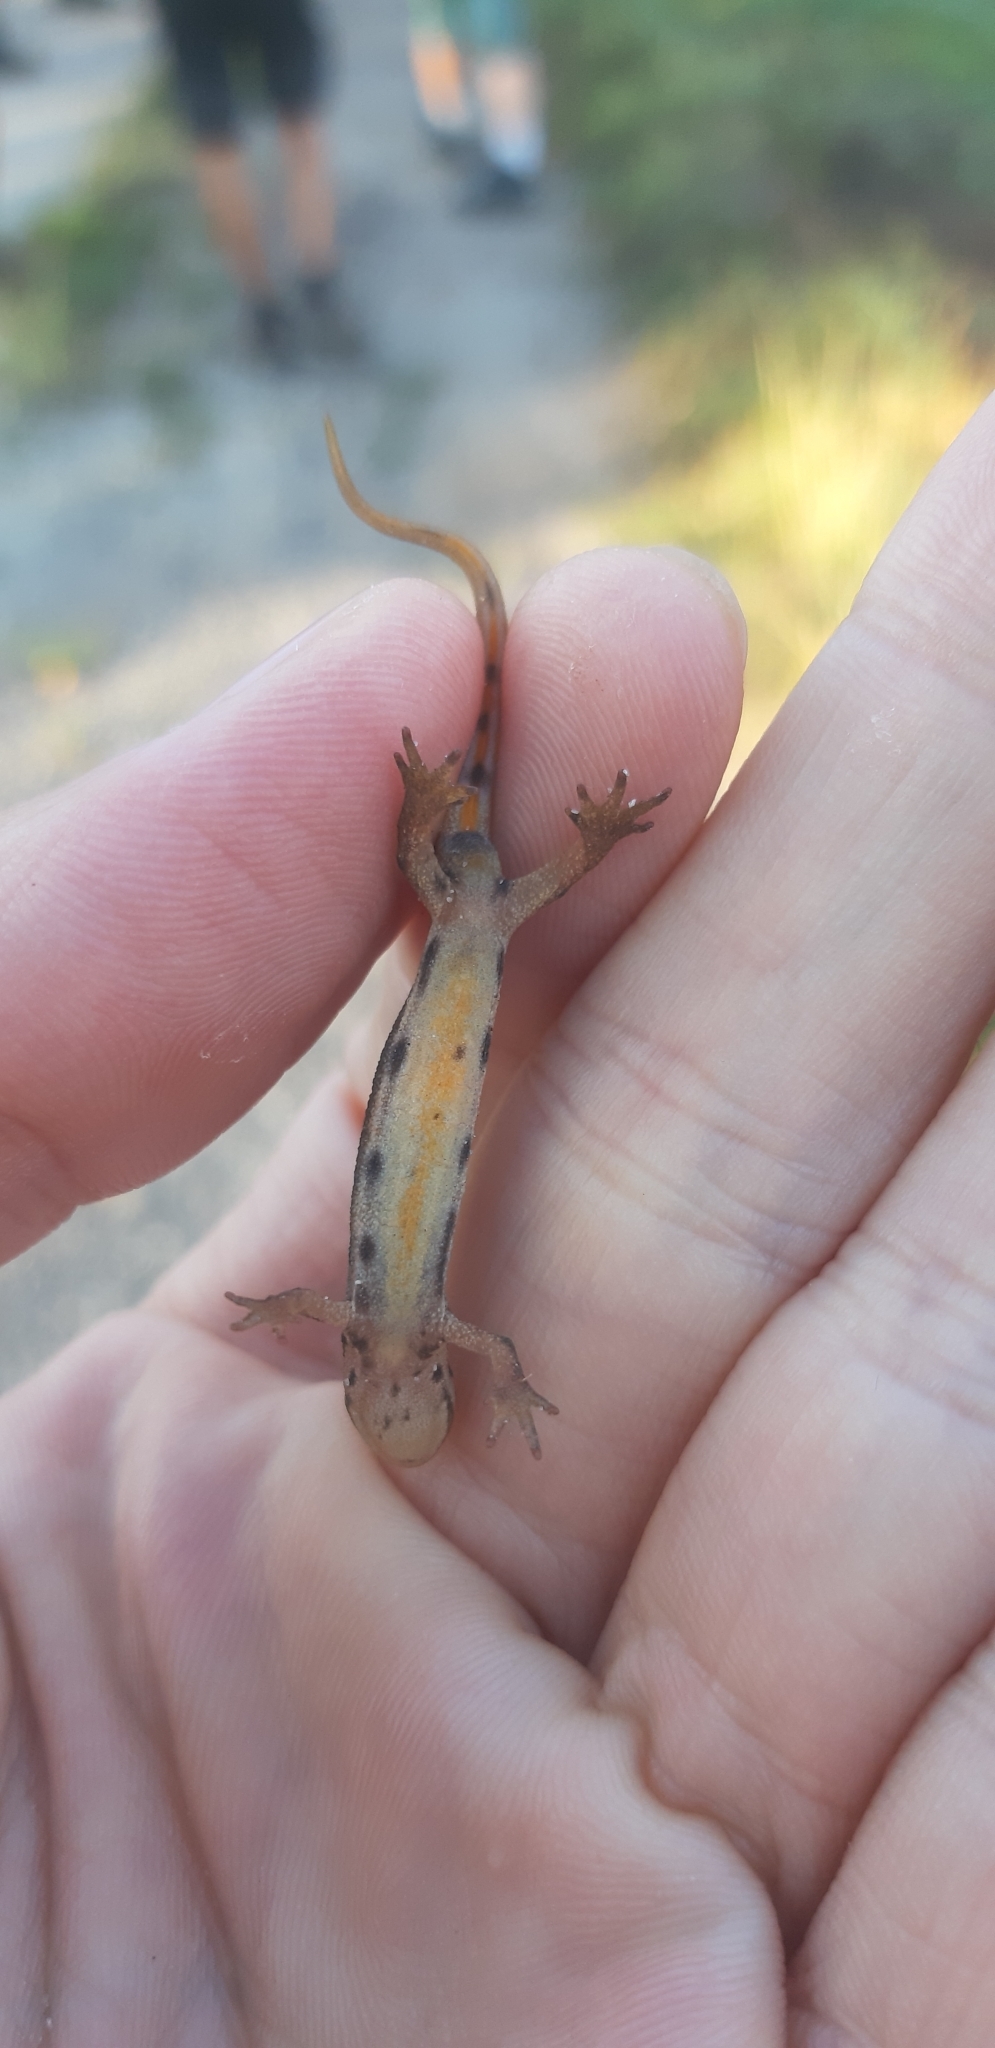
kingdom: Animalia
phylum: Chordata
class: Amphibia
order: Caudata
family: Salamandridae
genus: Lissotriton
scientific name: Lissotriton vulgaris
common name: Smooth newt
